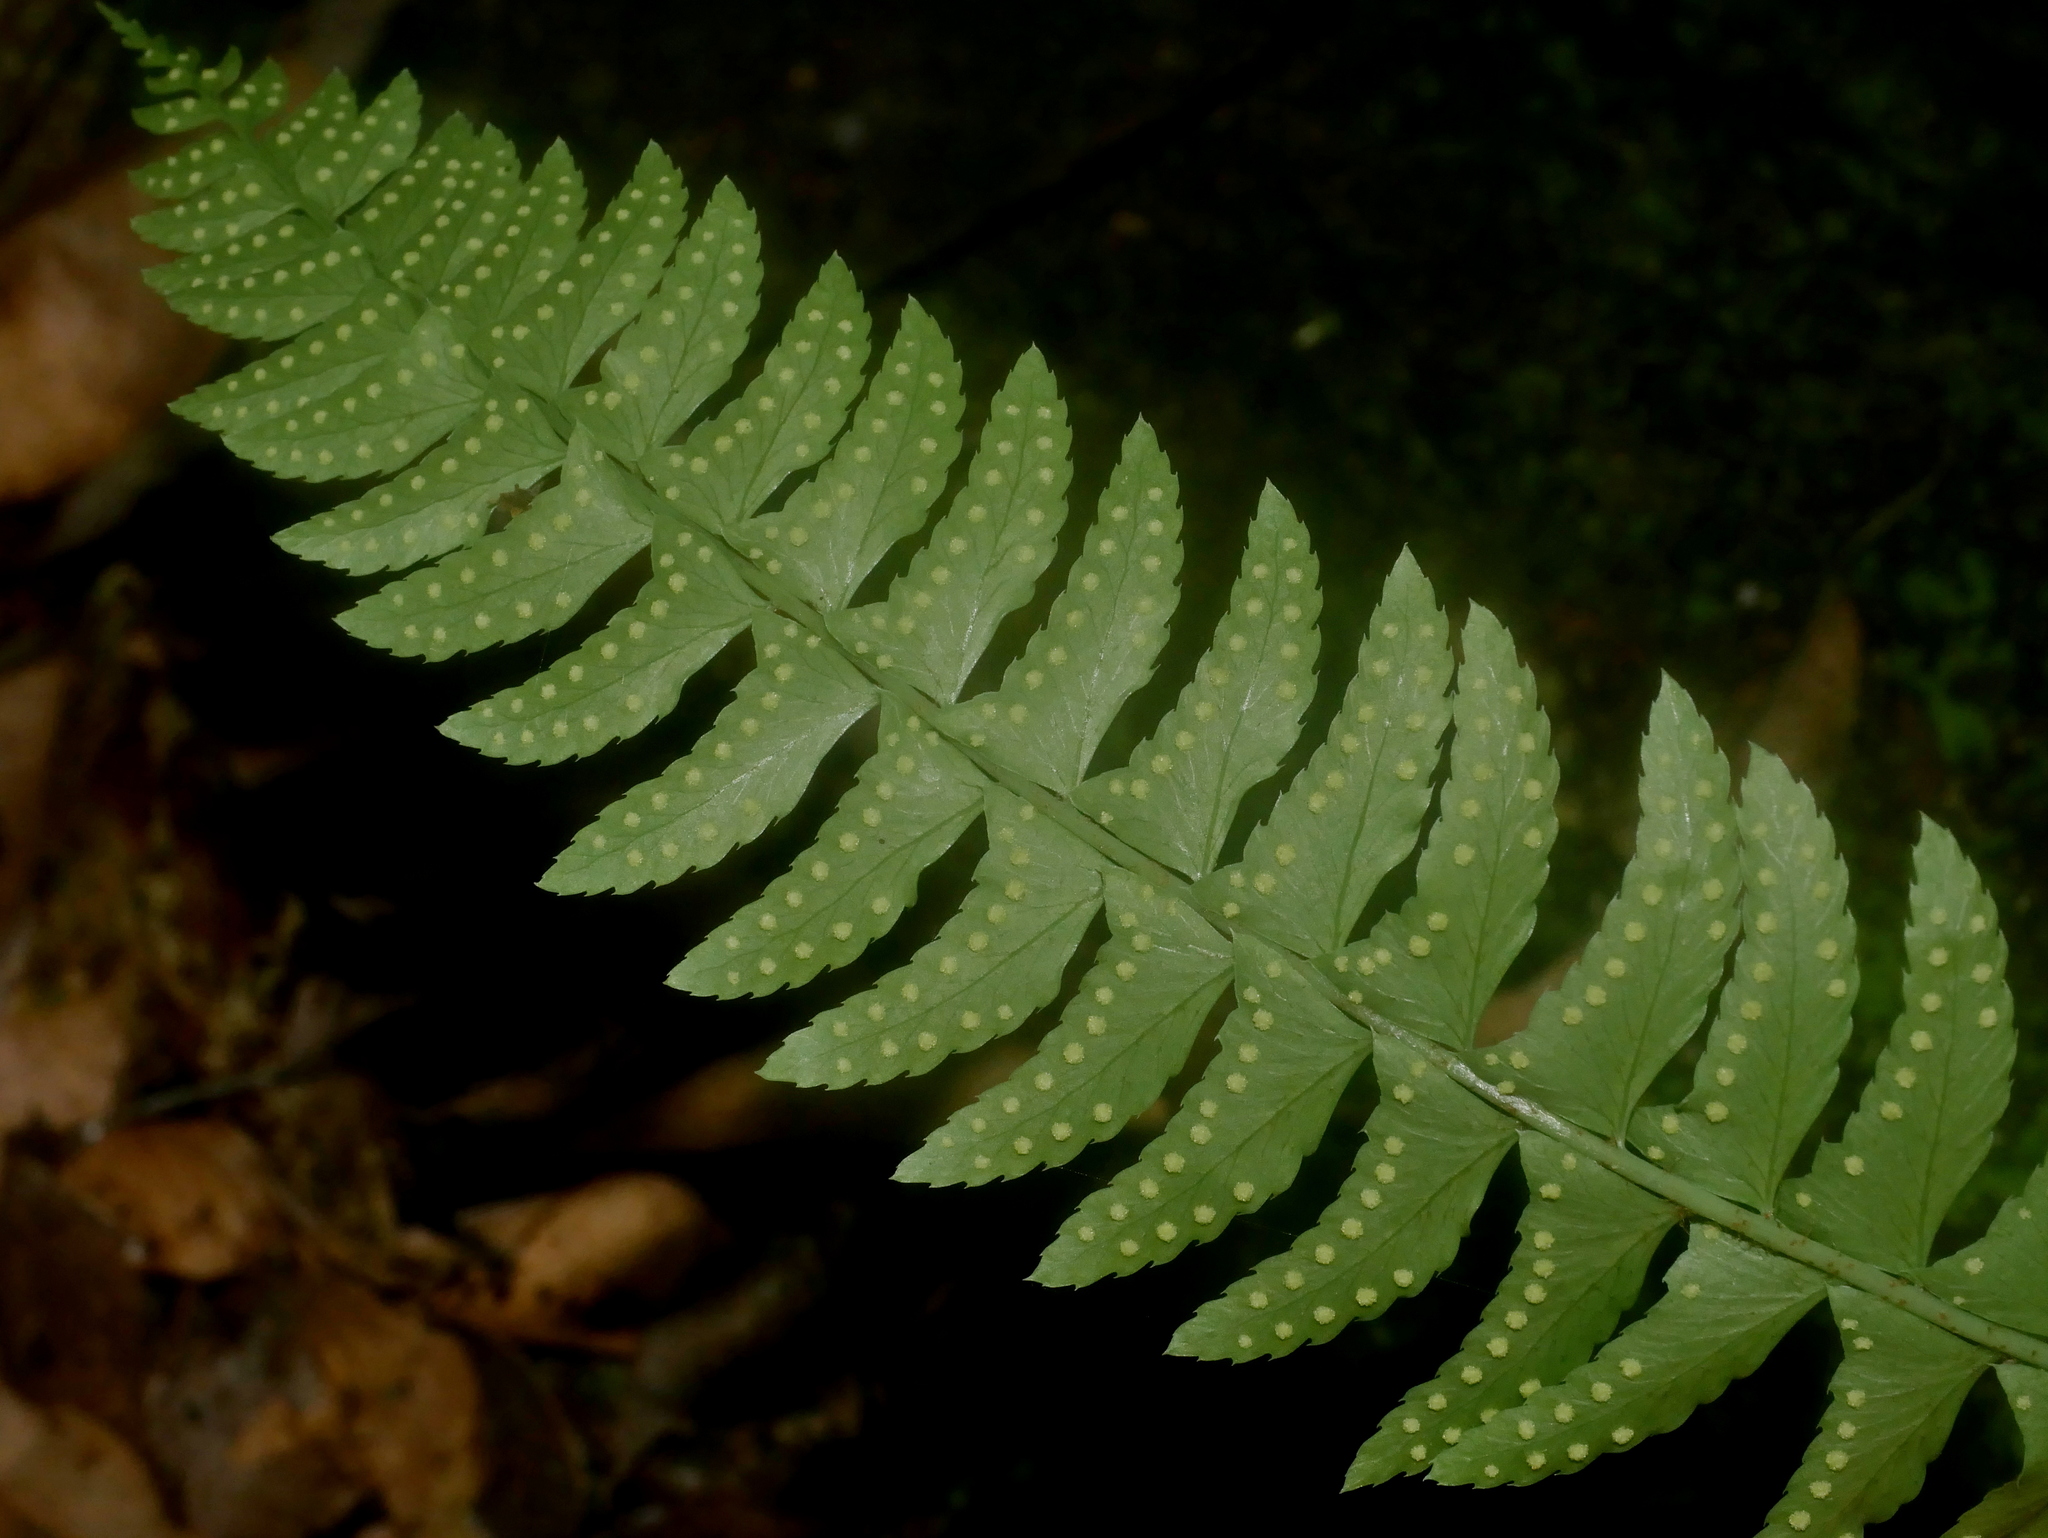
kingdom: Plantae
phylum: Tracheophyta
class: Polypodiopsida
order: Polypodiales
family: Dryopteridaceae
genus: Polystichum
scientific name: Polystichum acutidens
